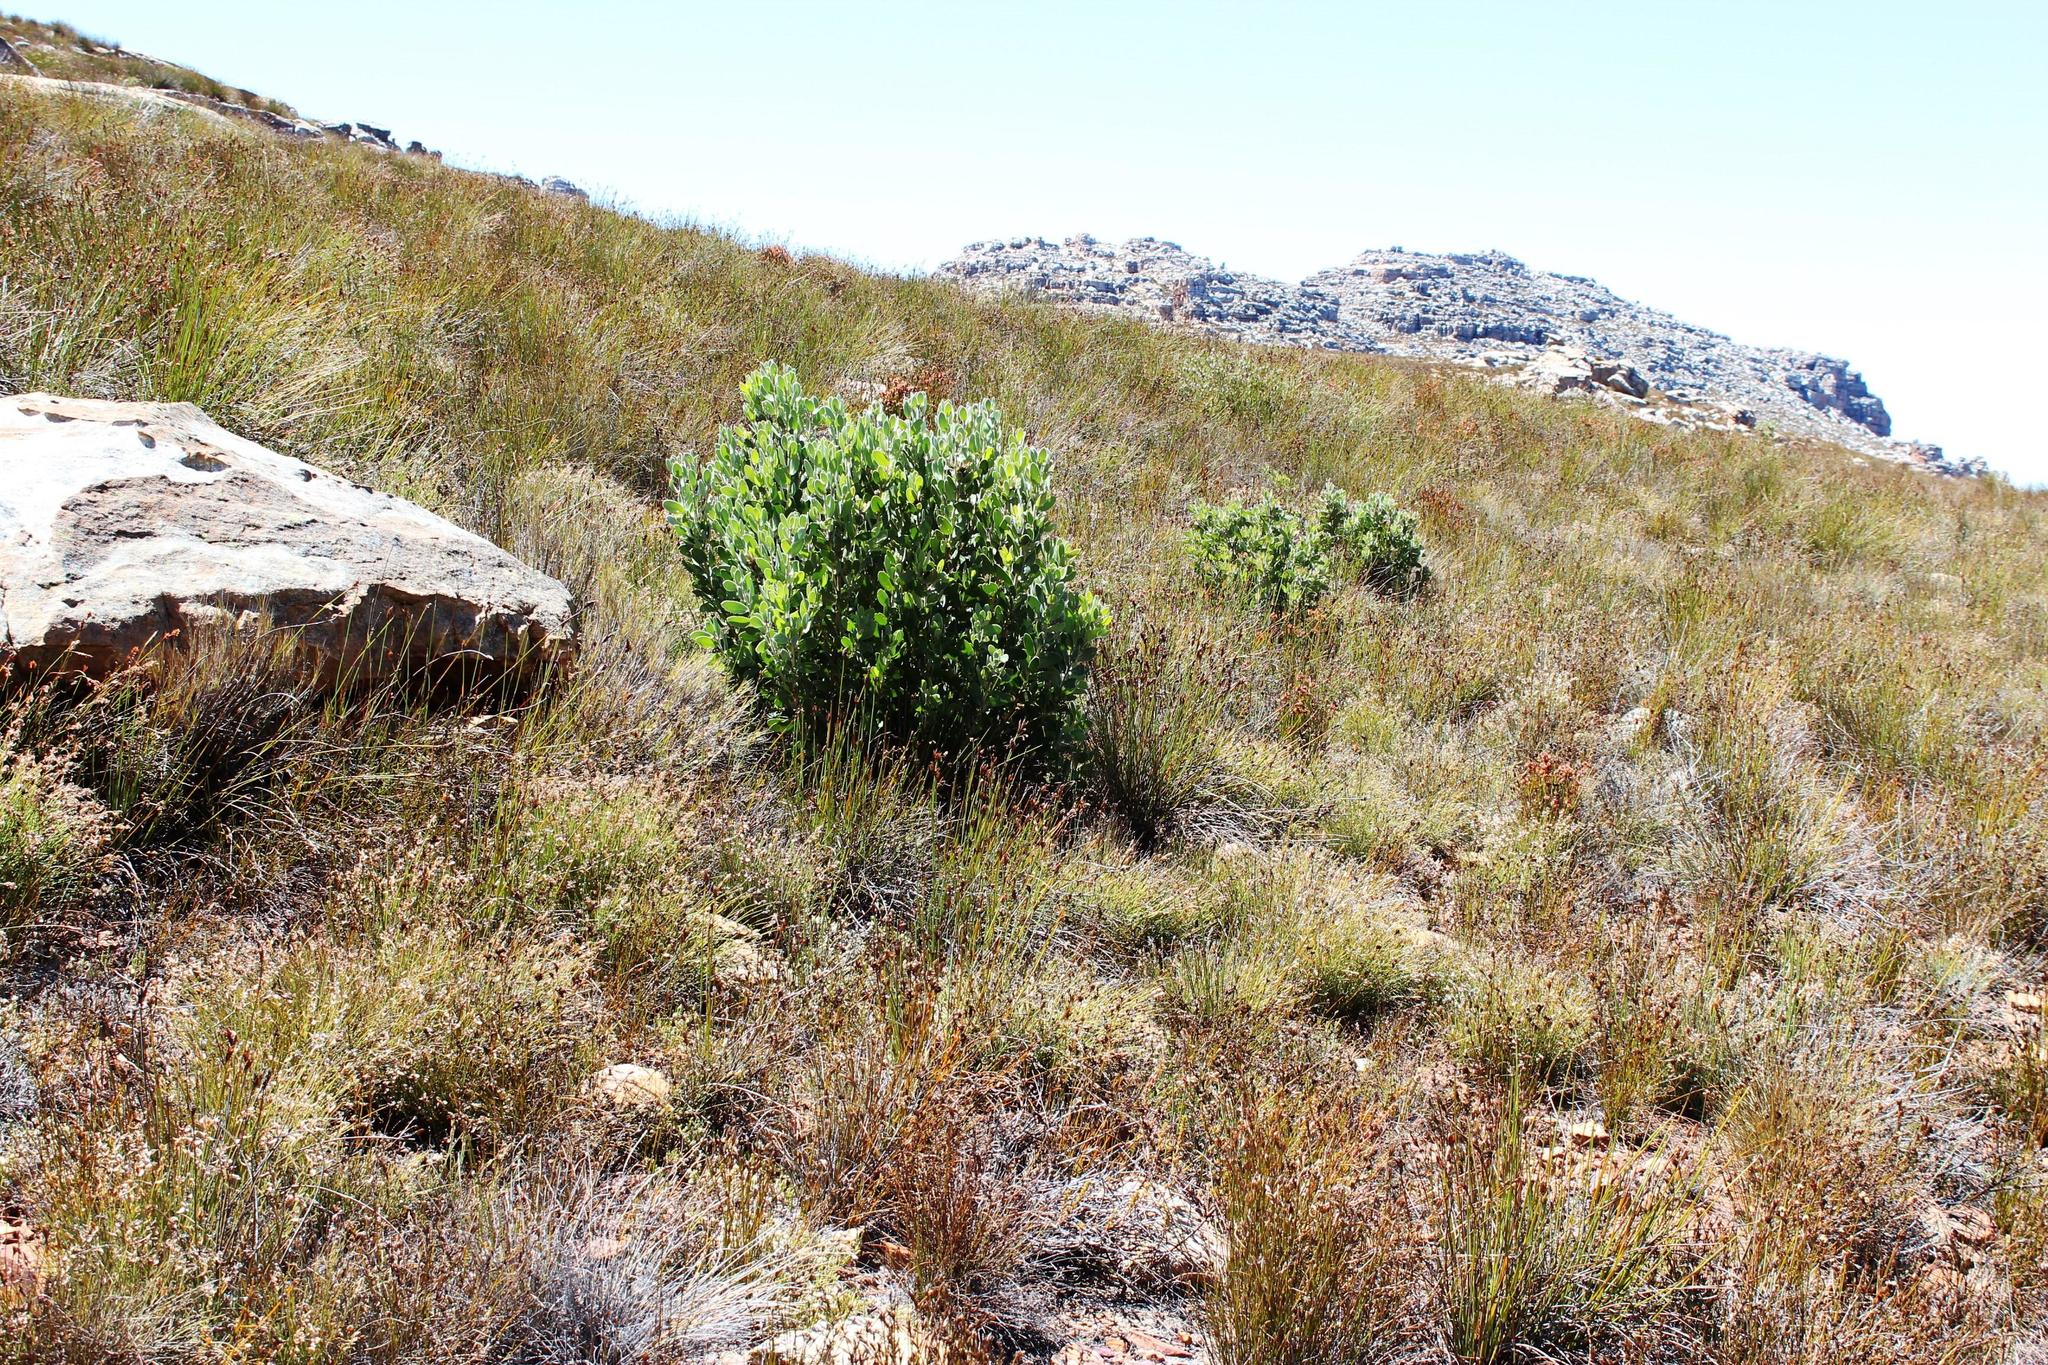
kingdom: Plantae
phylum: Tracheophyta
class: Magnoliopsida
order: Proteales
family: Proteaceae
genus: Protea
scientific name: Protea punctata
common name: Water sugarbush
